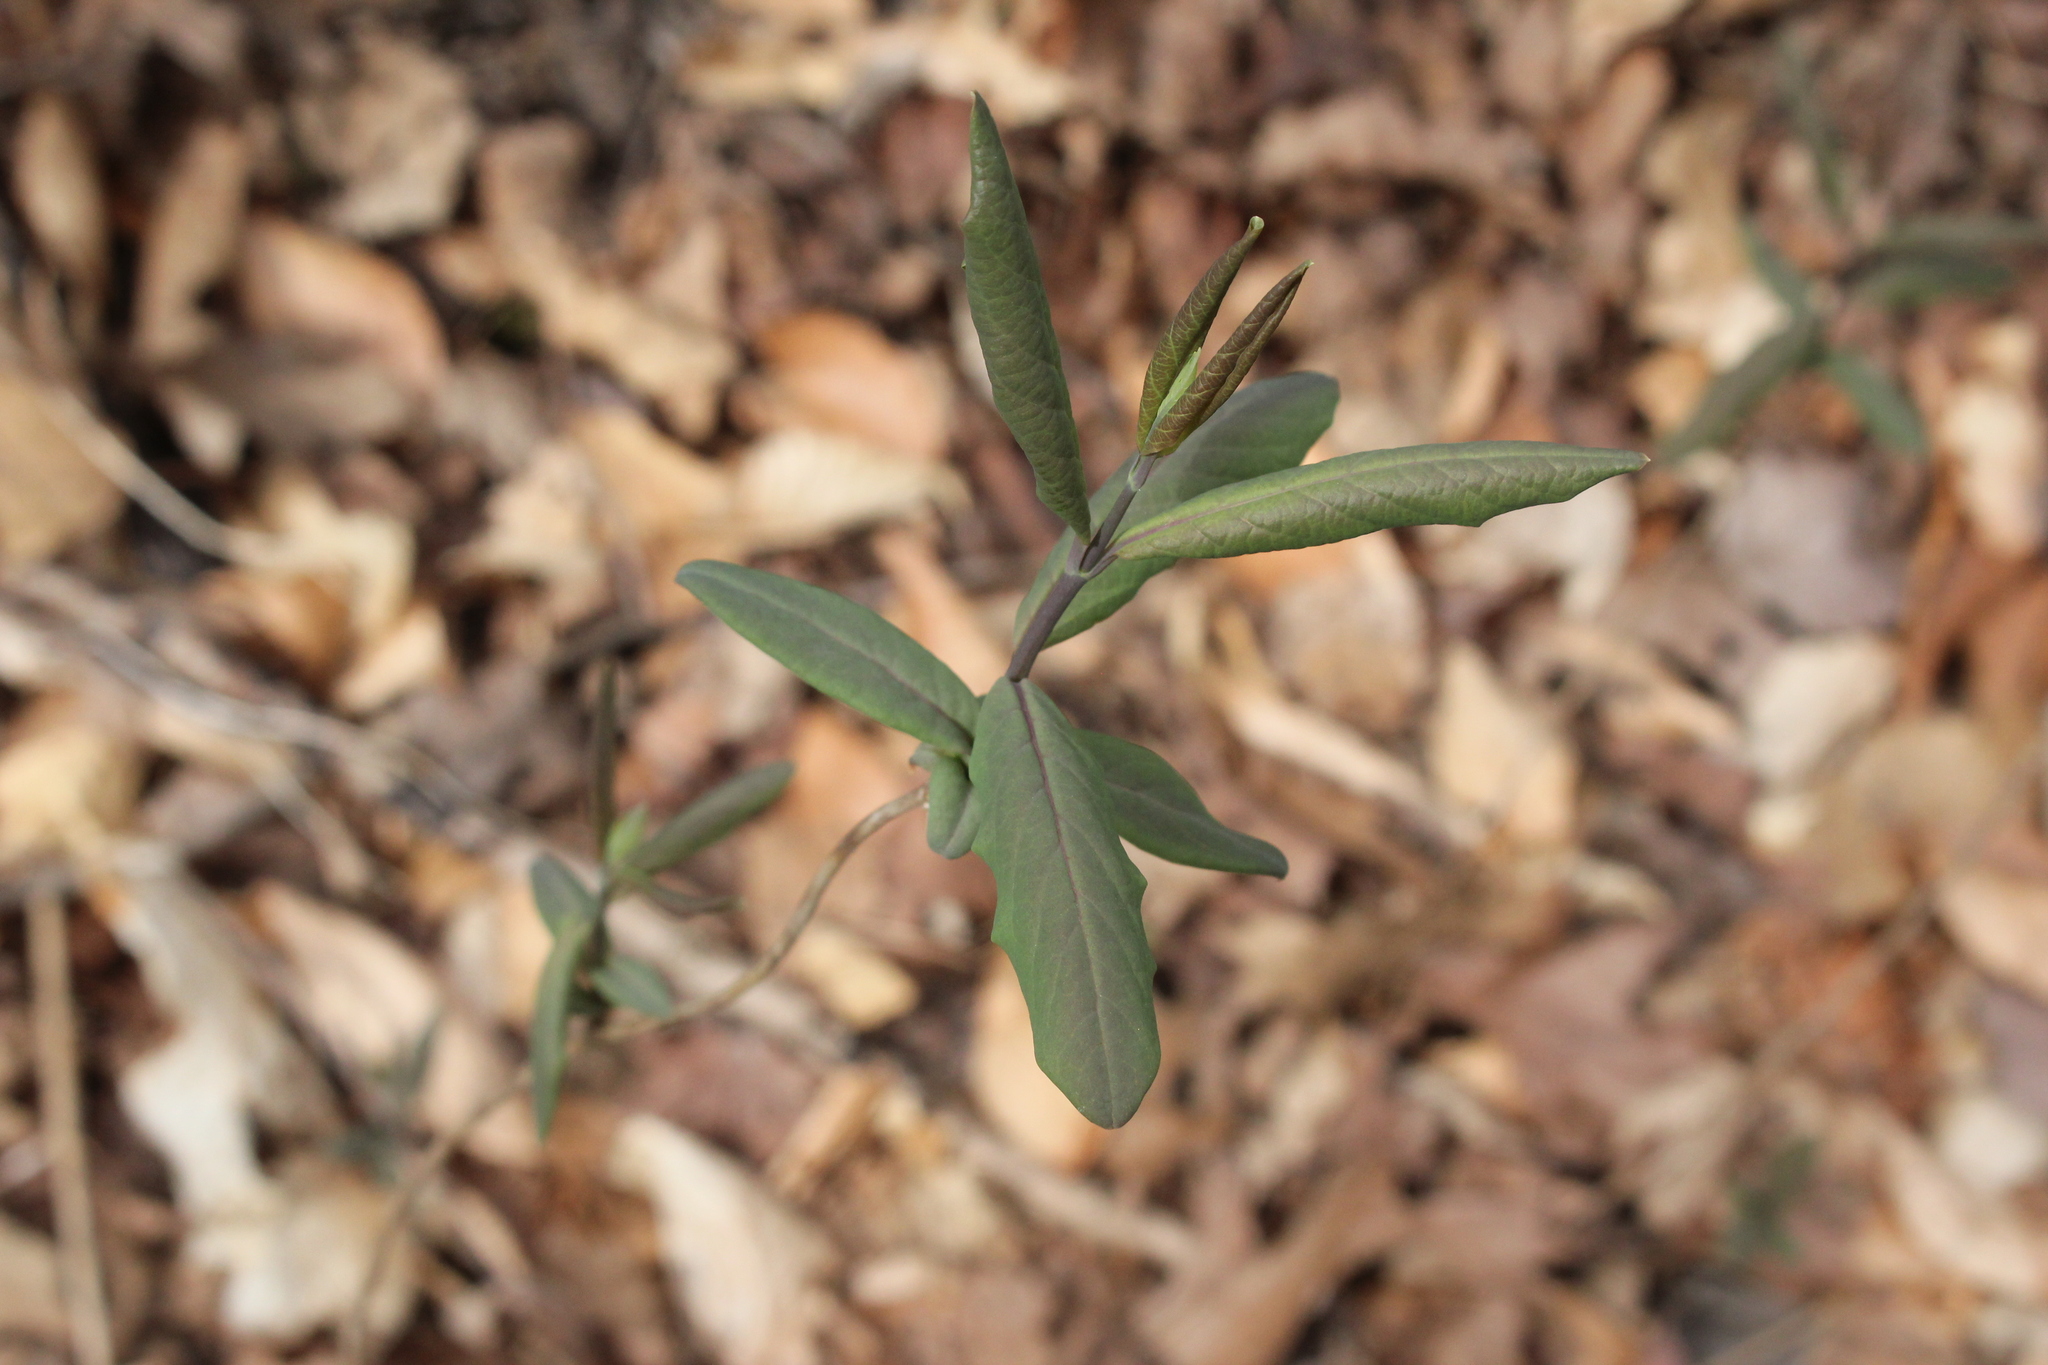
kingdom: Plantae
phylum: Tracheophyta
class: Magnoliopsida
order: Dipsacales
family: Caprifoliaceae
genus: Lonicera
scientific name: Lonicera dioica
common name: Limber honeysuckle
